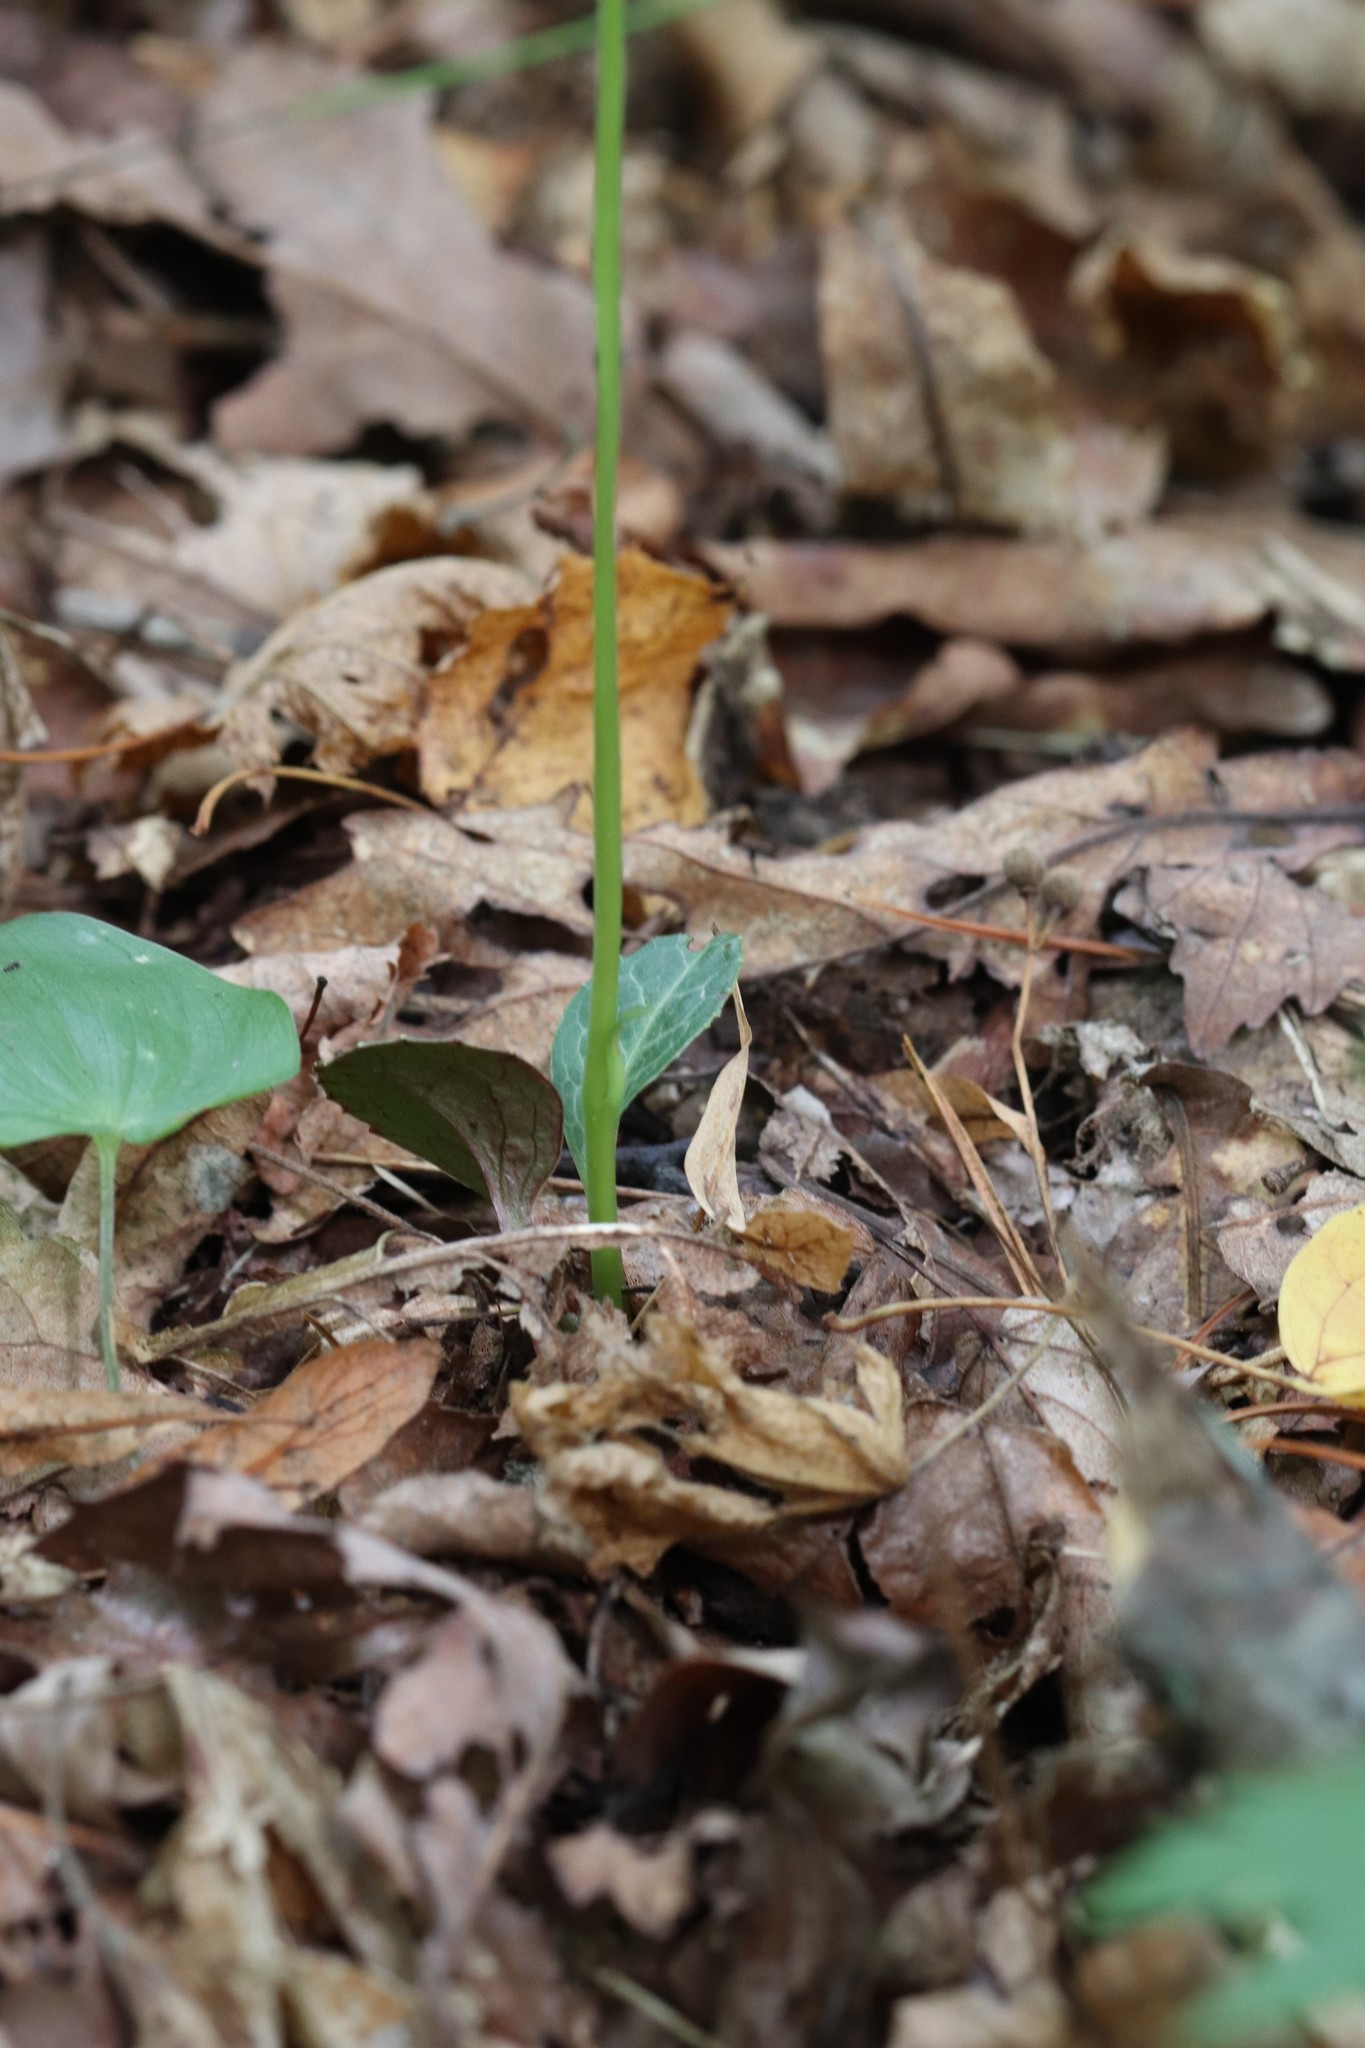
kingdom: Plantae
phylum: Tracheophyta
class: Magnoliopsida
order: Ericales
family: Ericaceae
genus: Pyrola
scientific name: Pyrola japonica
